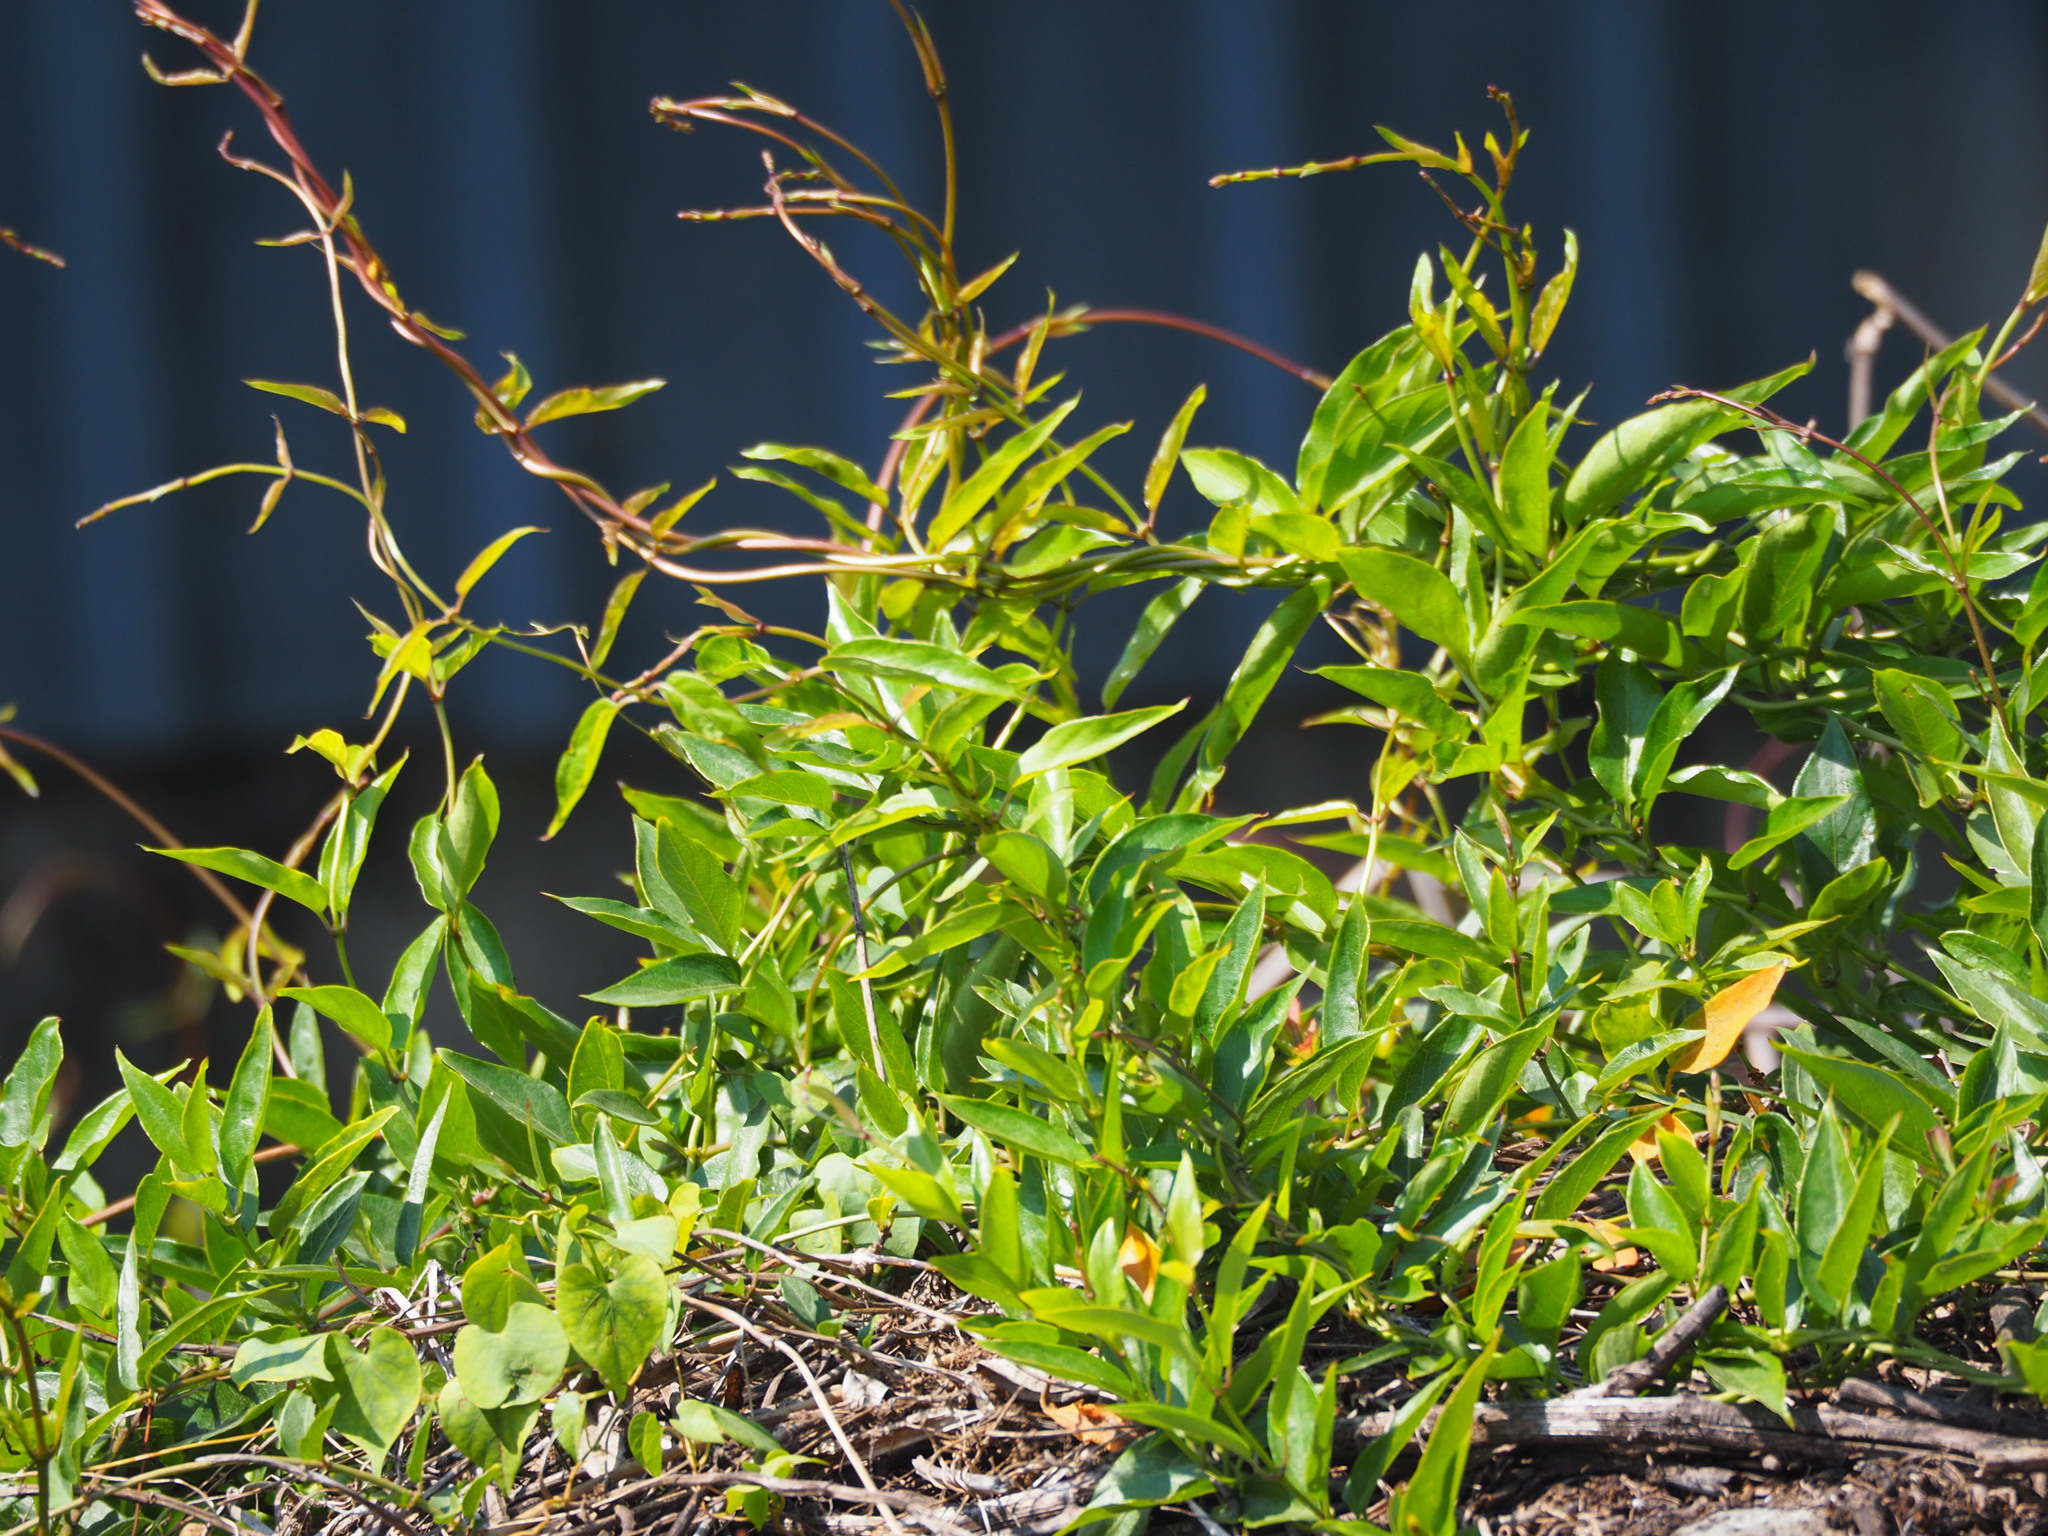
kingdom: Plantae
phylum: Tracheophyta
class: Magnoliopsida
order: Gentianales
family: Rubiaceae
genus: Paederia
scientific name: Paederia foetida
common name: Stinkvine
